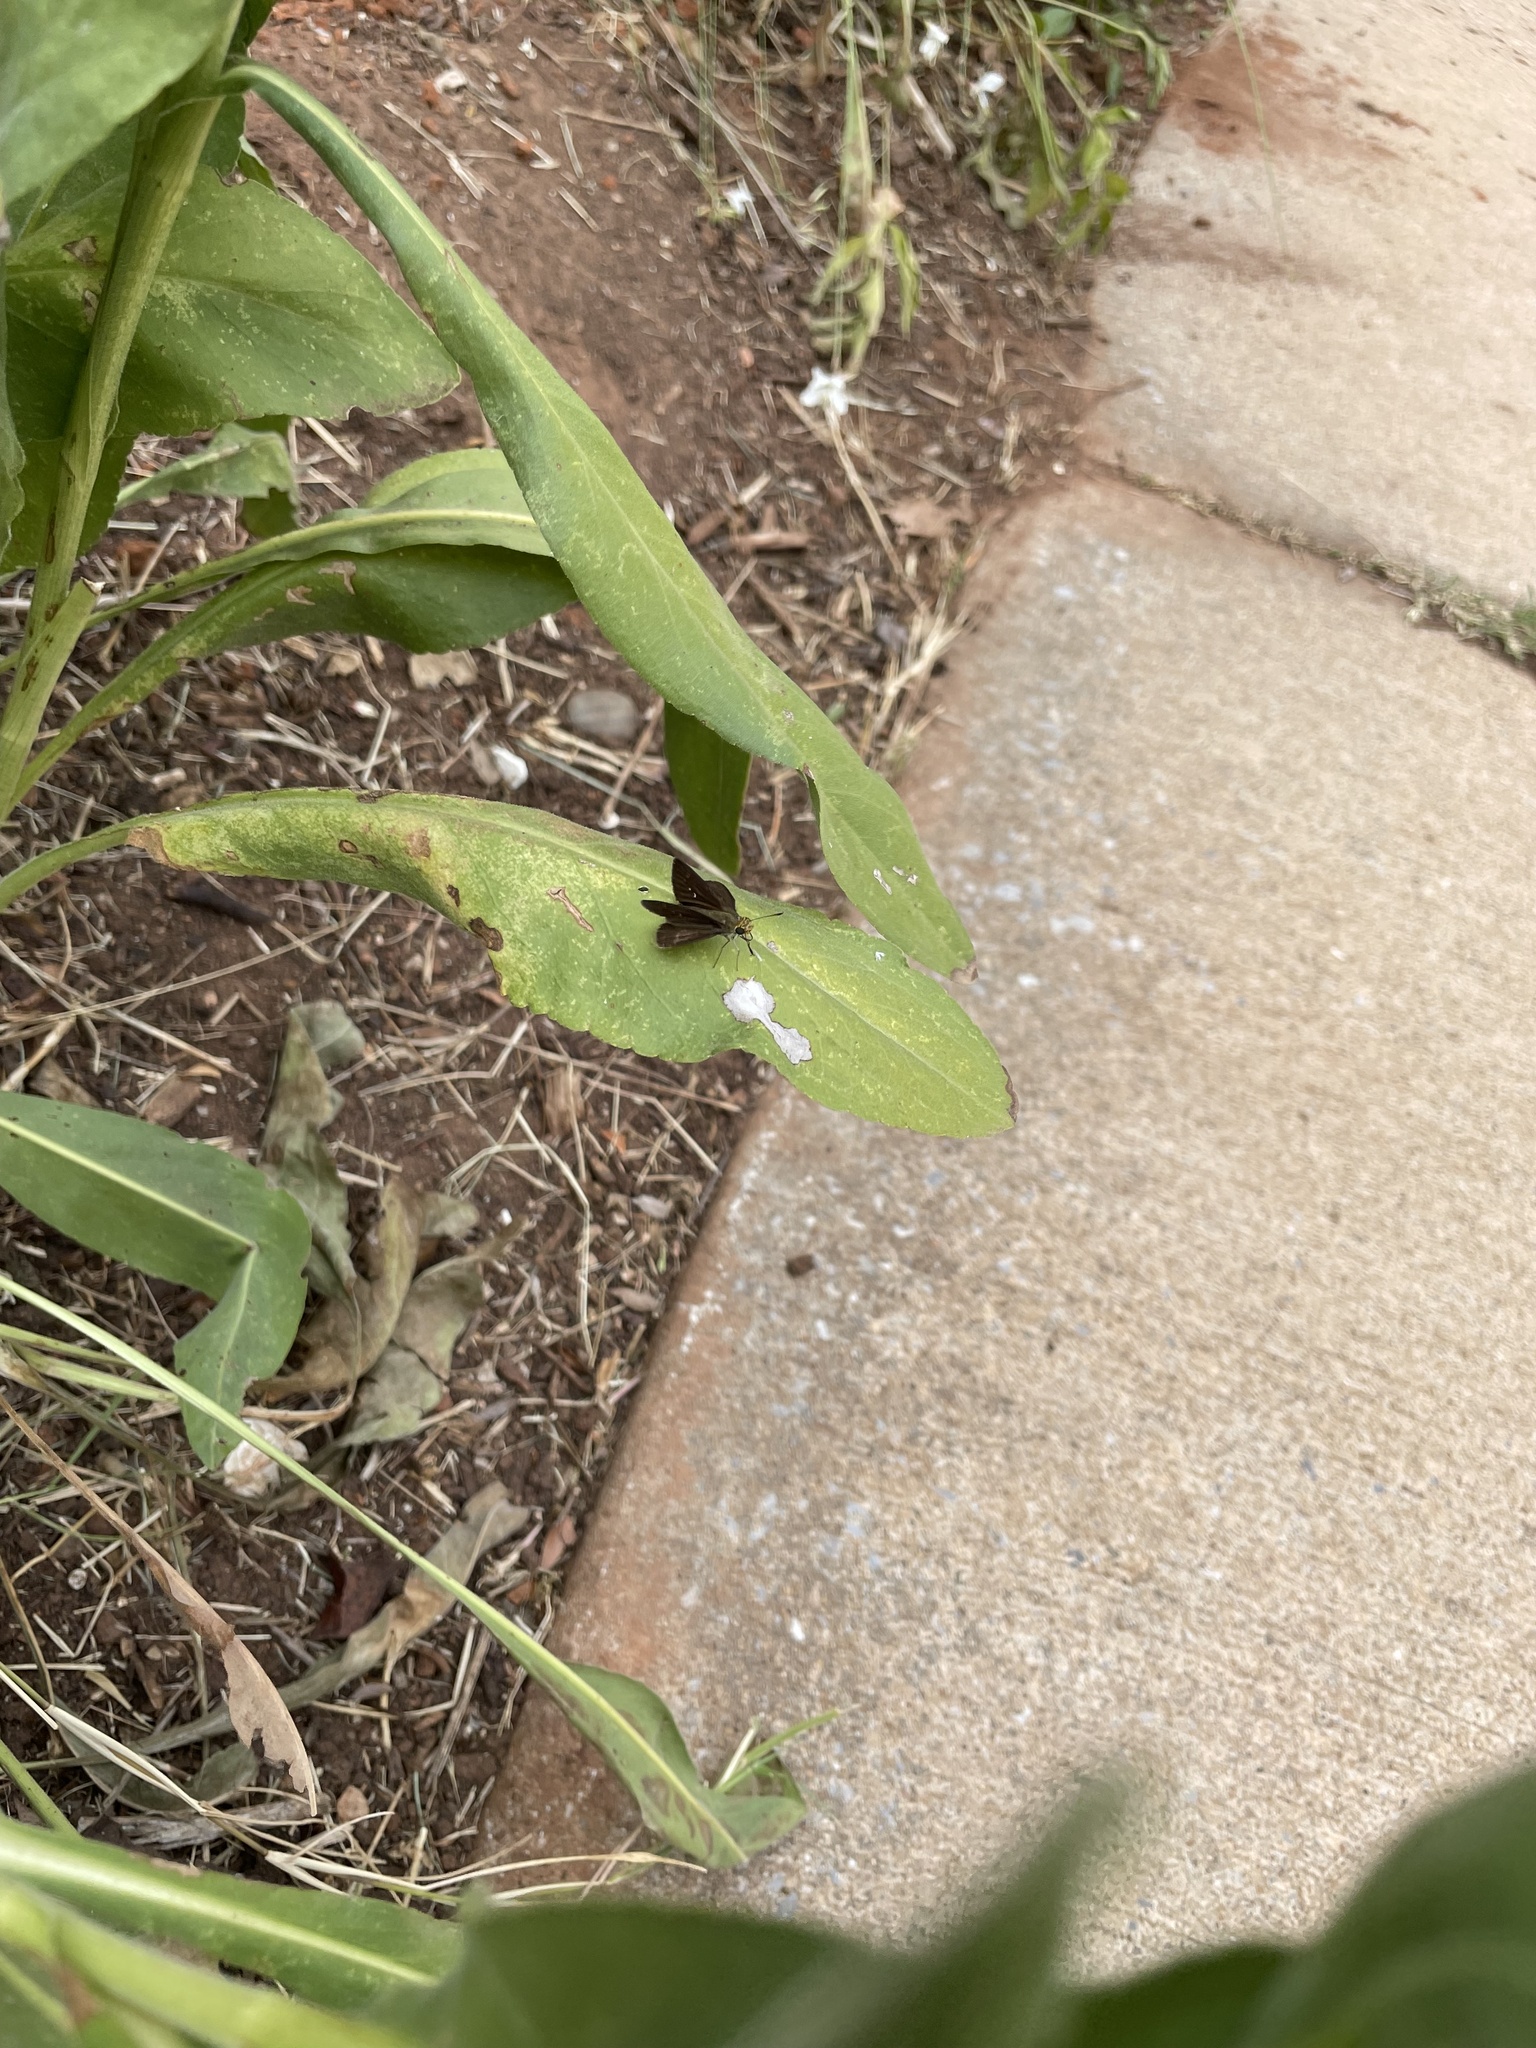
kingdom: Animalia
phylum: Arthropoda
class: Insecta
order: Lepidoptera
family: Hesperiidae
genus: Euphyes
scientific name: Euphyes vestris
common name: Dun skipper
